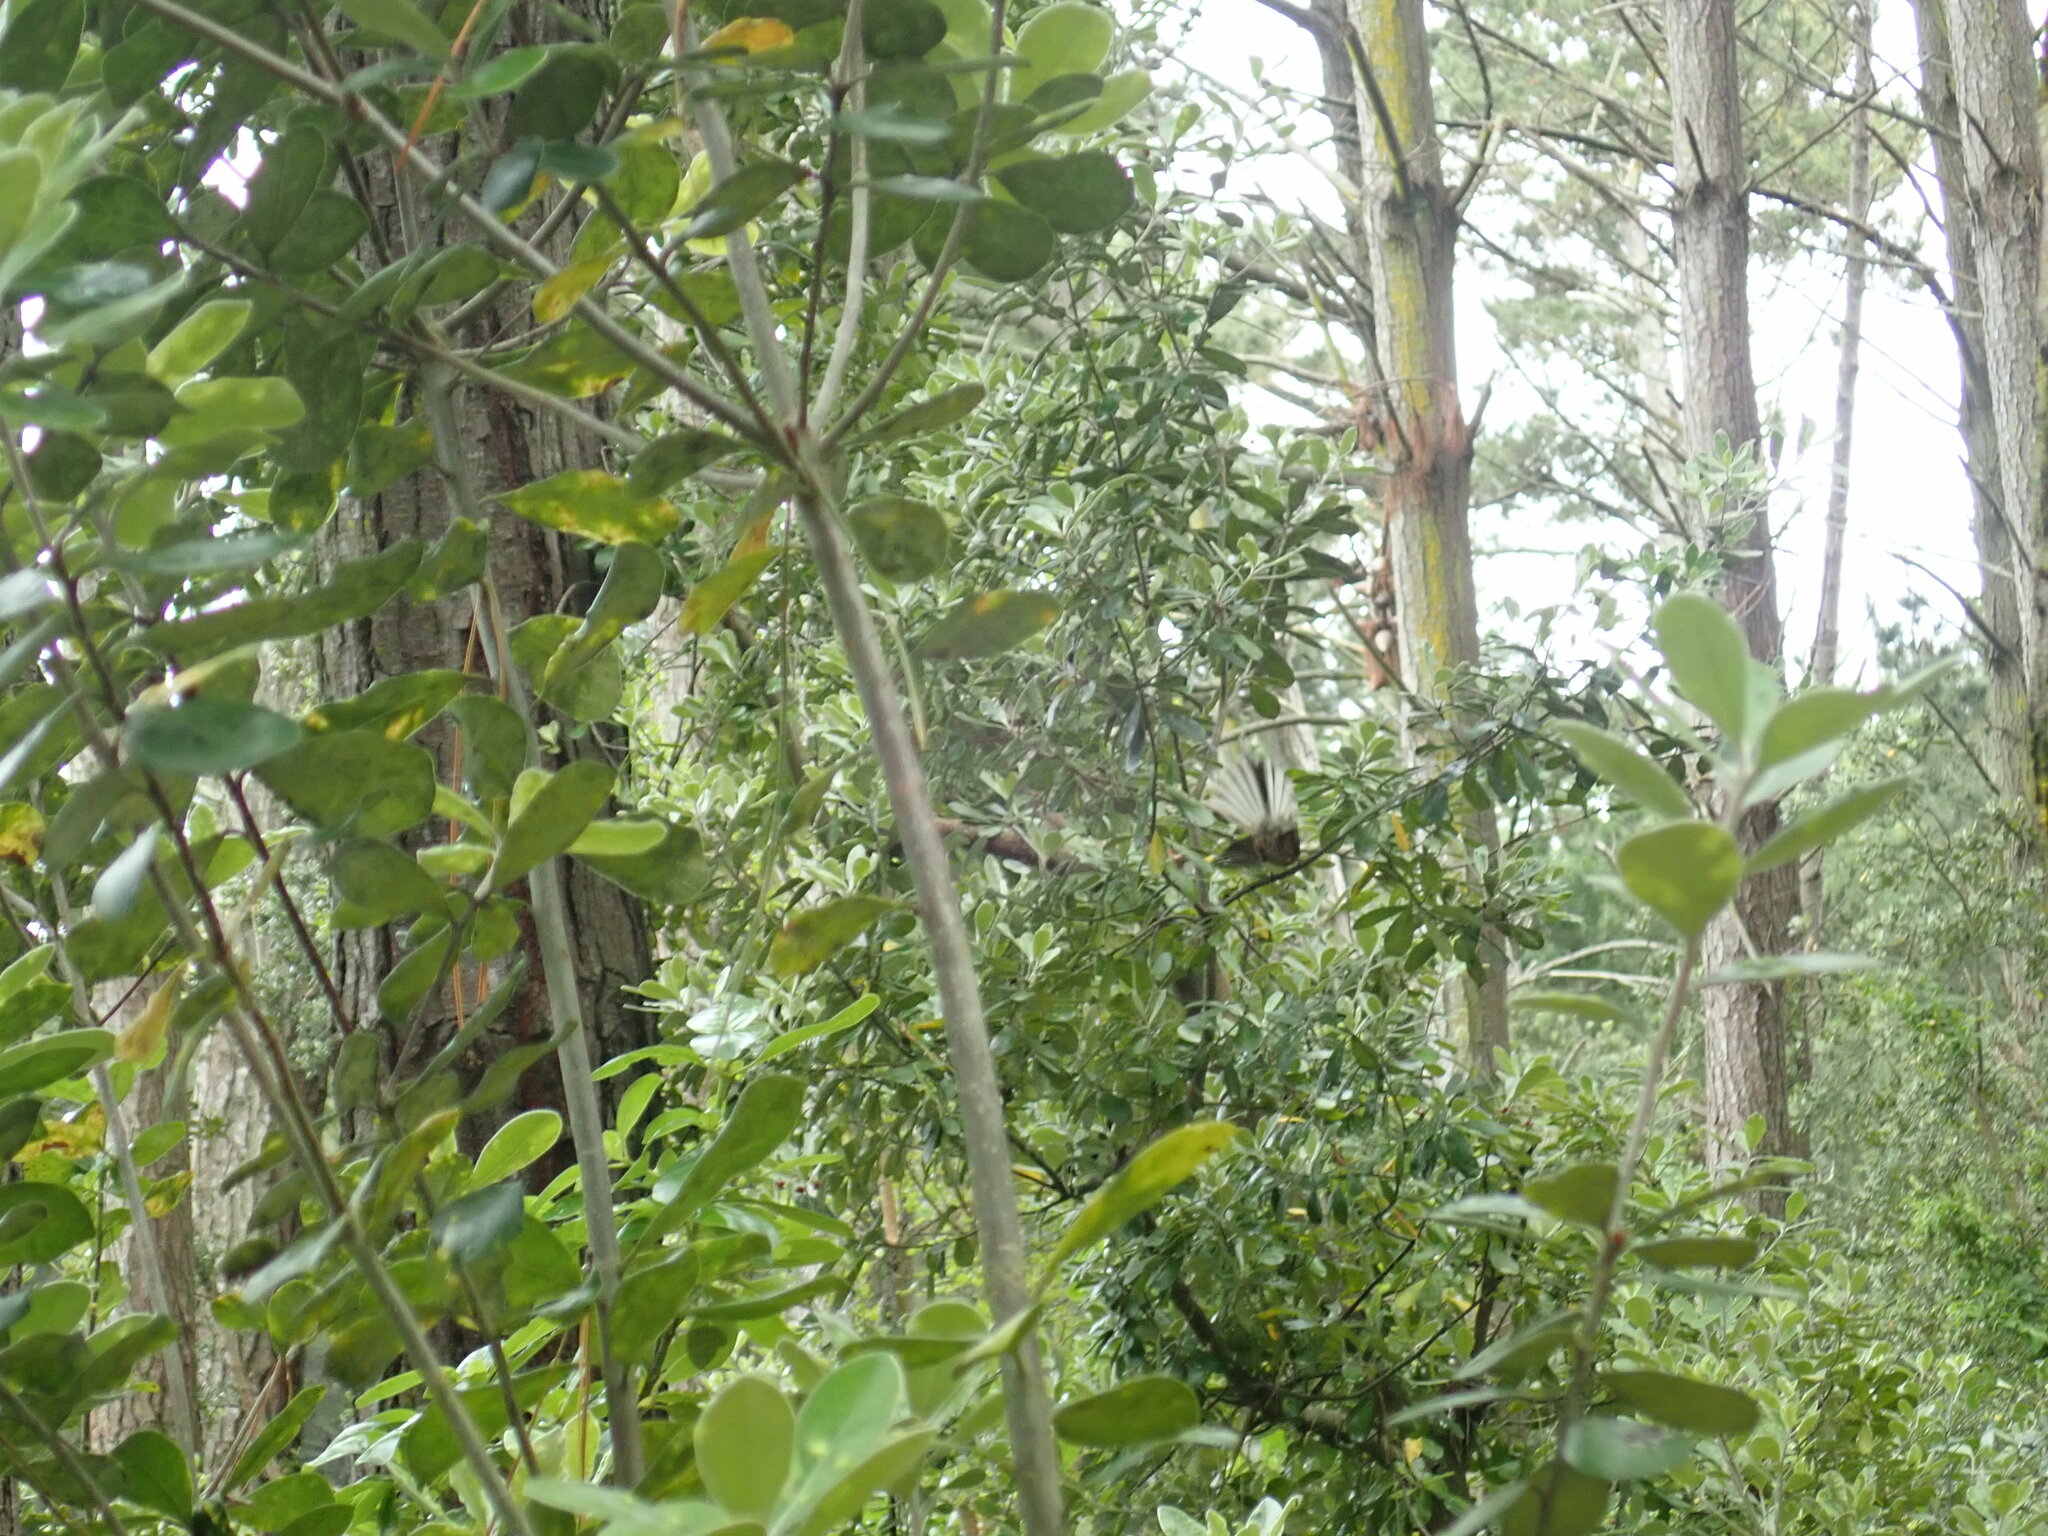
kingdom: Animalia
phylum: Chordata
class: Aves
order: Passeriformes
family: Rhipiduridae
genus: Rhipidura
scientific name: Rhipidura fuliginosa
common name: New zealand fantail
